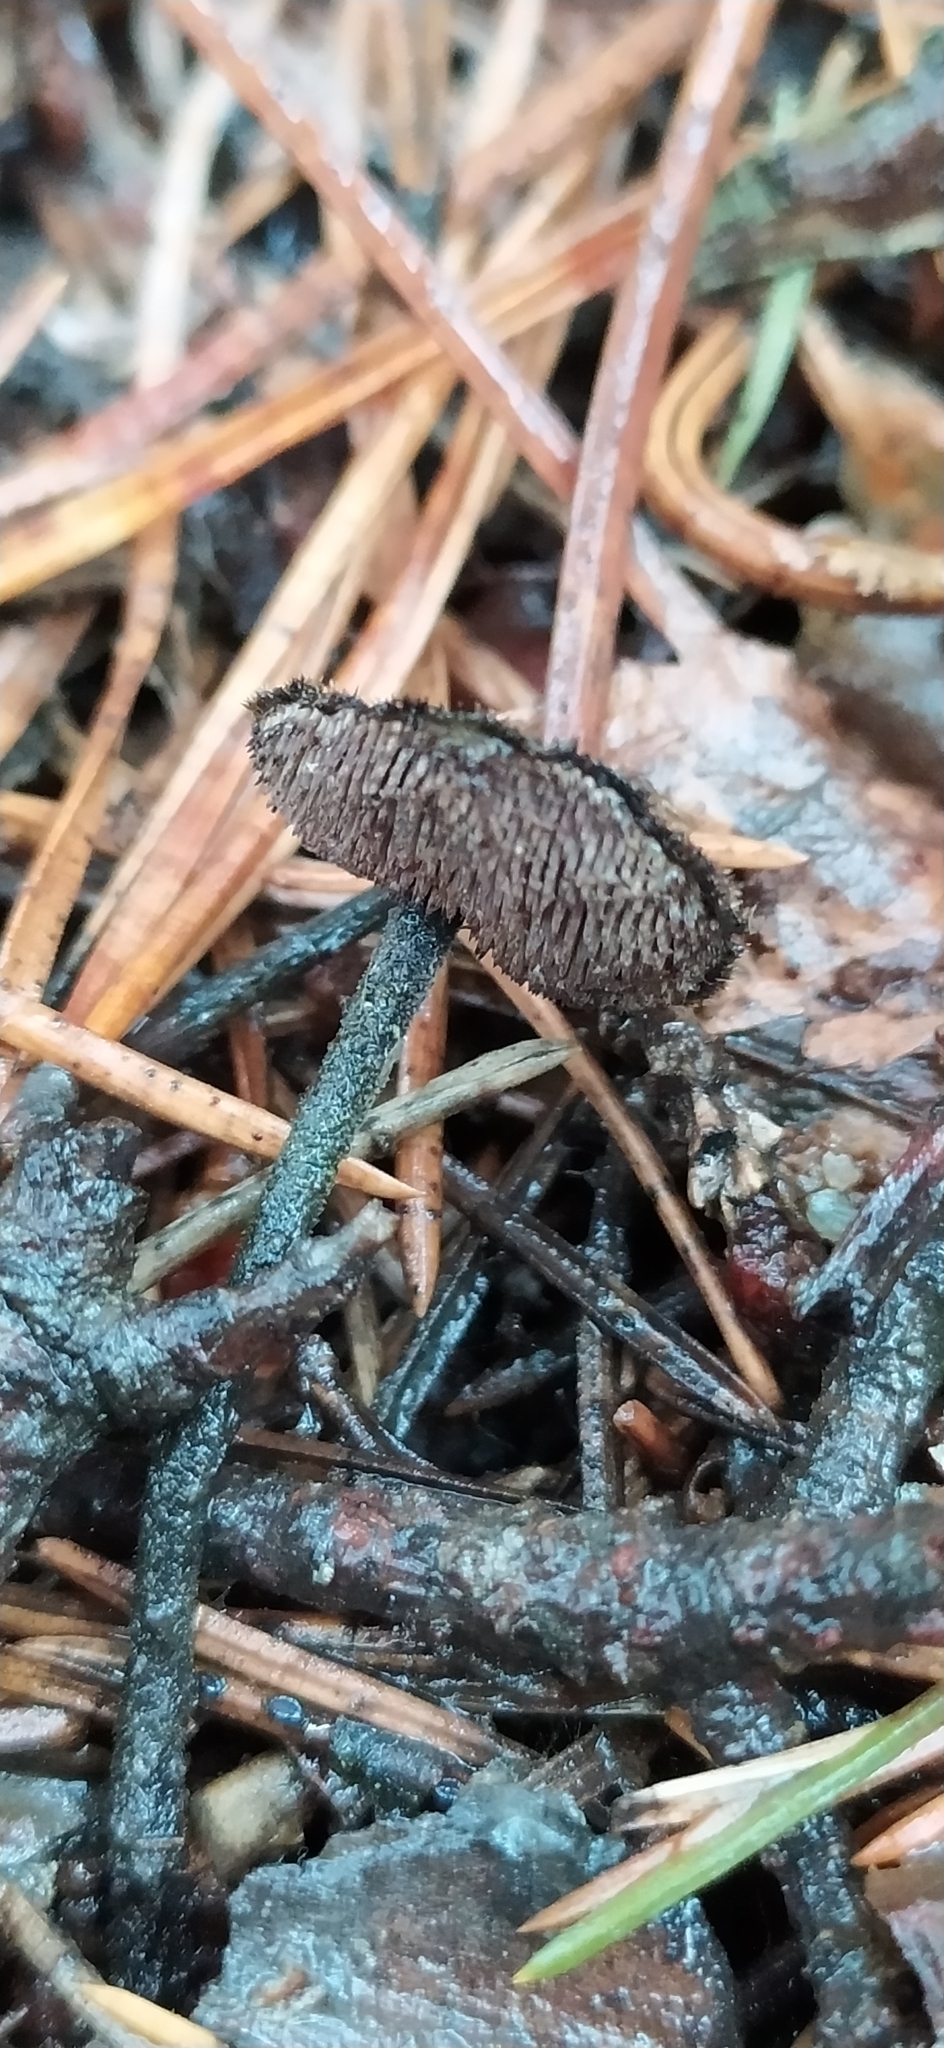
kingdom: Fungi
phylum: Basidiomycota
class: Agaricomycetes
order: Russulales
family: Auriscalpiaceae
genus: Auriscalpium
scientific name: Auriscalpium vulgare
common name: Earpick fungus
